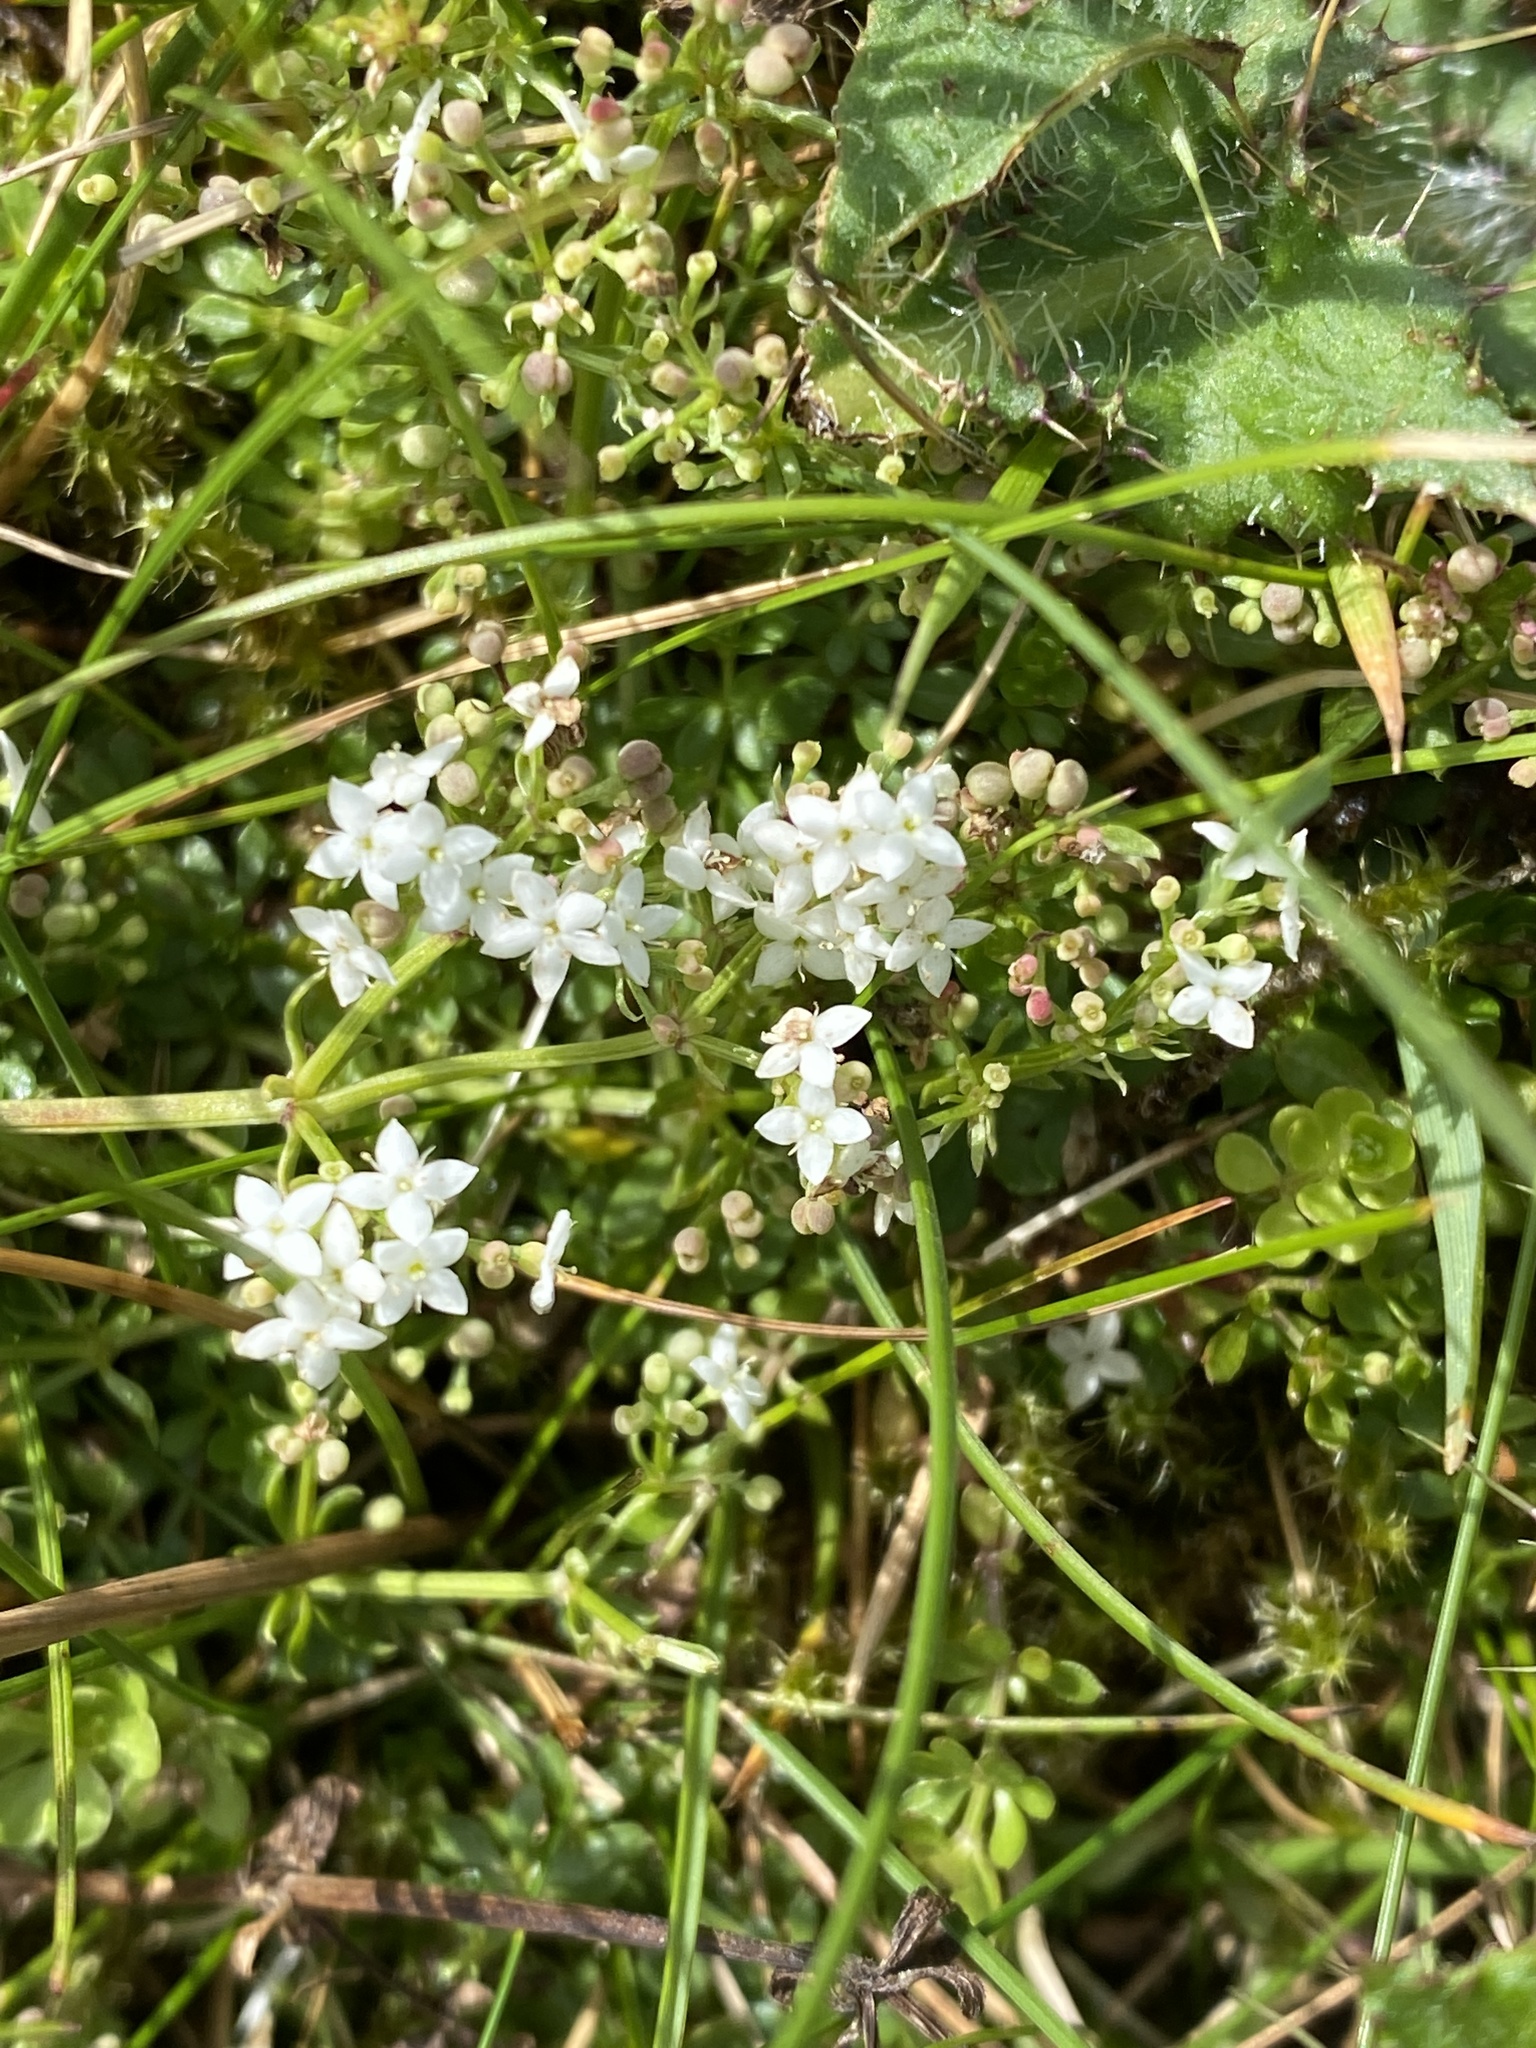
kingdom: Plantae
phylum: Tracheophyta
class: Magnoliopsida
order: Gentianales
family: Rubiaceae
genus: Galium
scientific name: Galium saxatile
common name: Heath bedstraw
